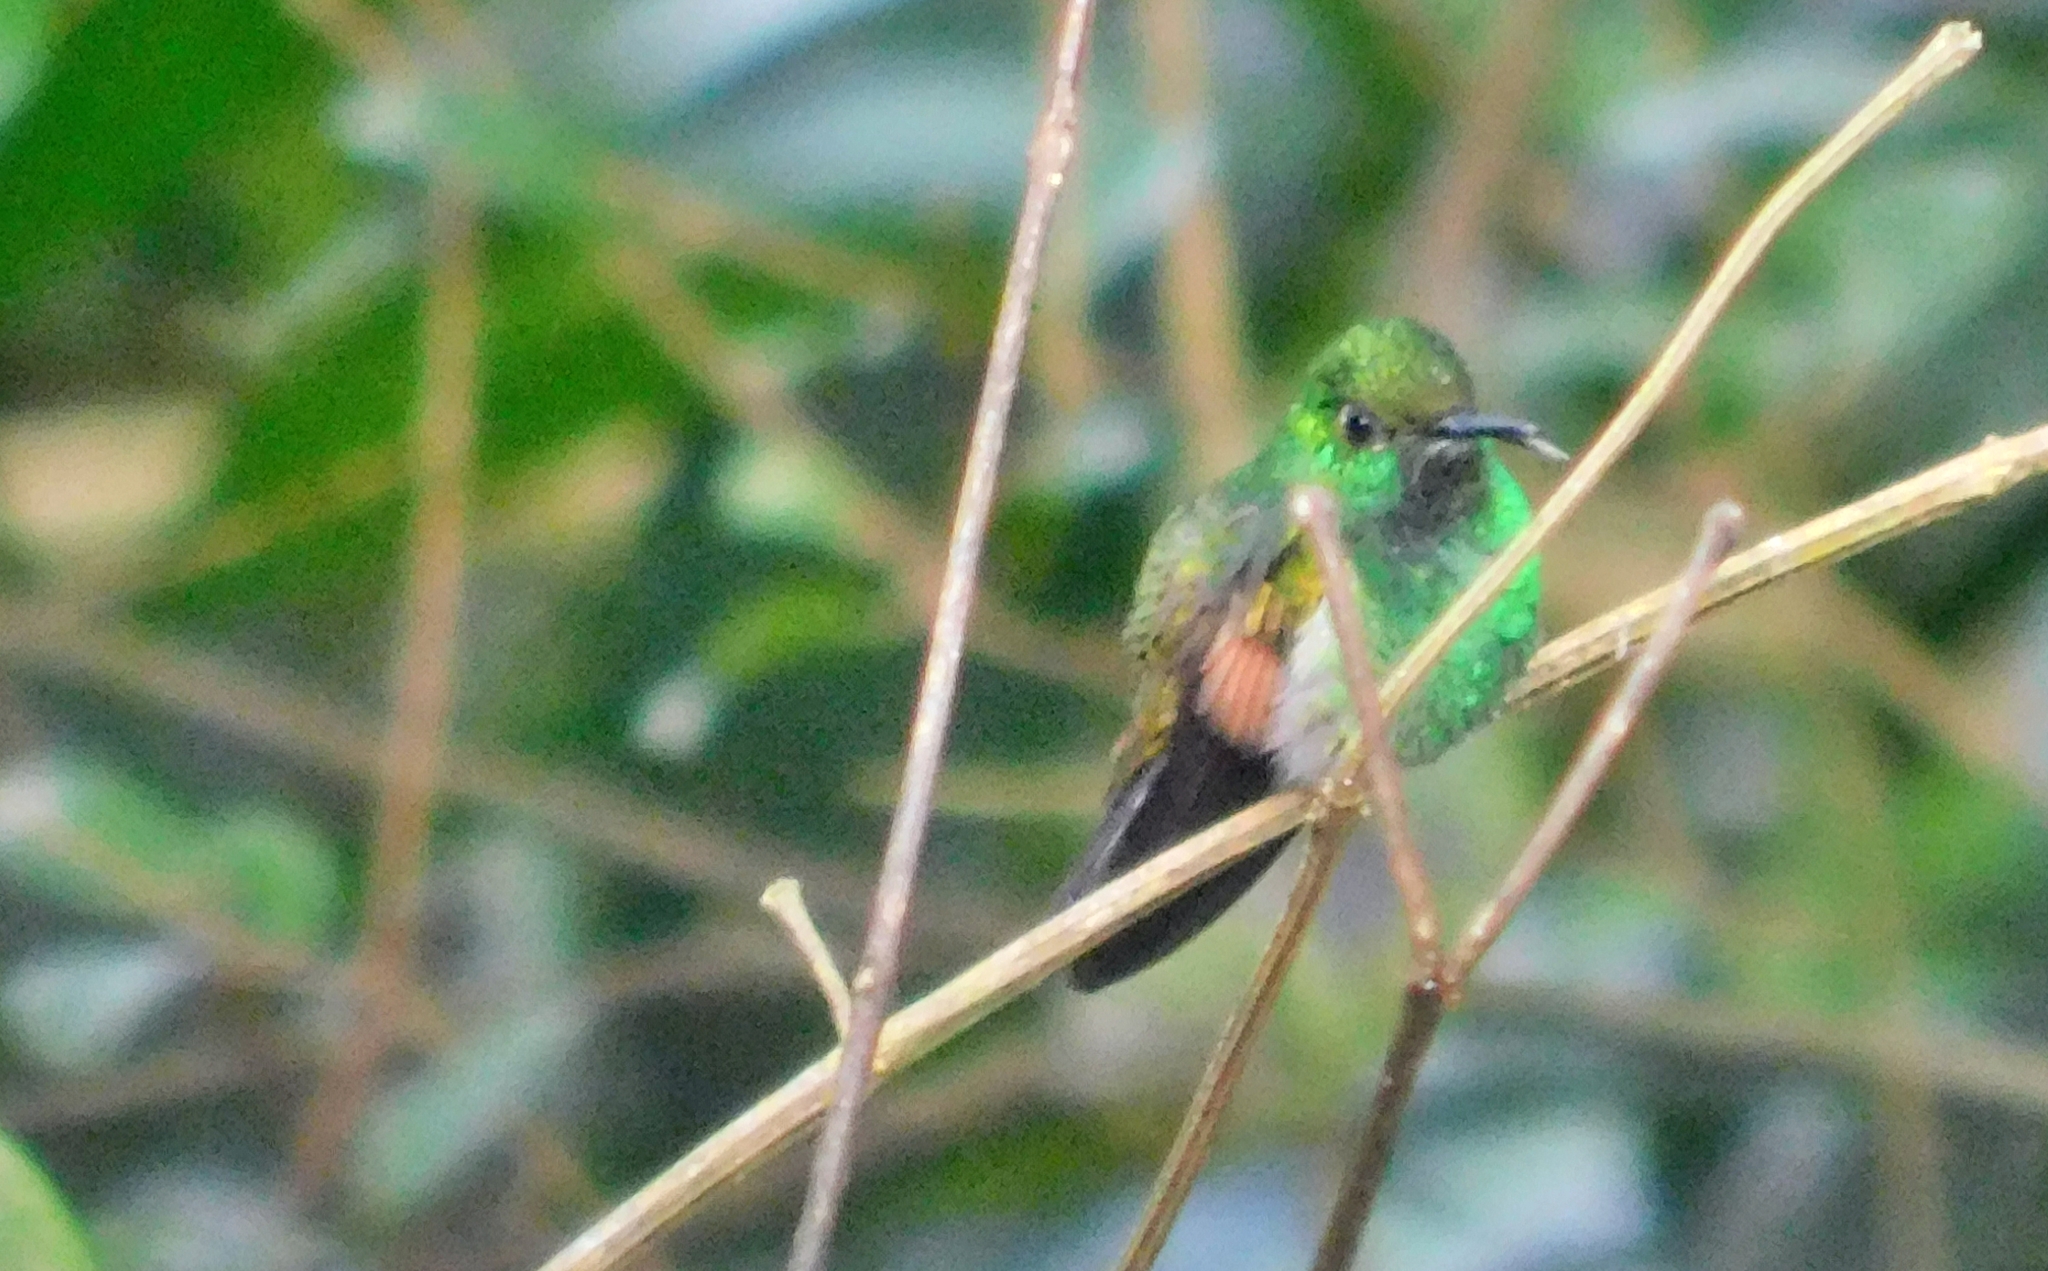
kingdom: Animalia
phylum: Chordata
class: Aves
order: Apodiformes
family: Trochilidae
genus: Eupherusa
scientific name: Eupherusa eximia
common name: Stripe-tailed hummingbird
